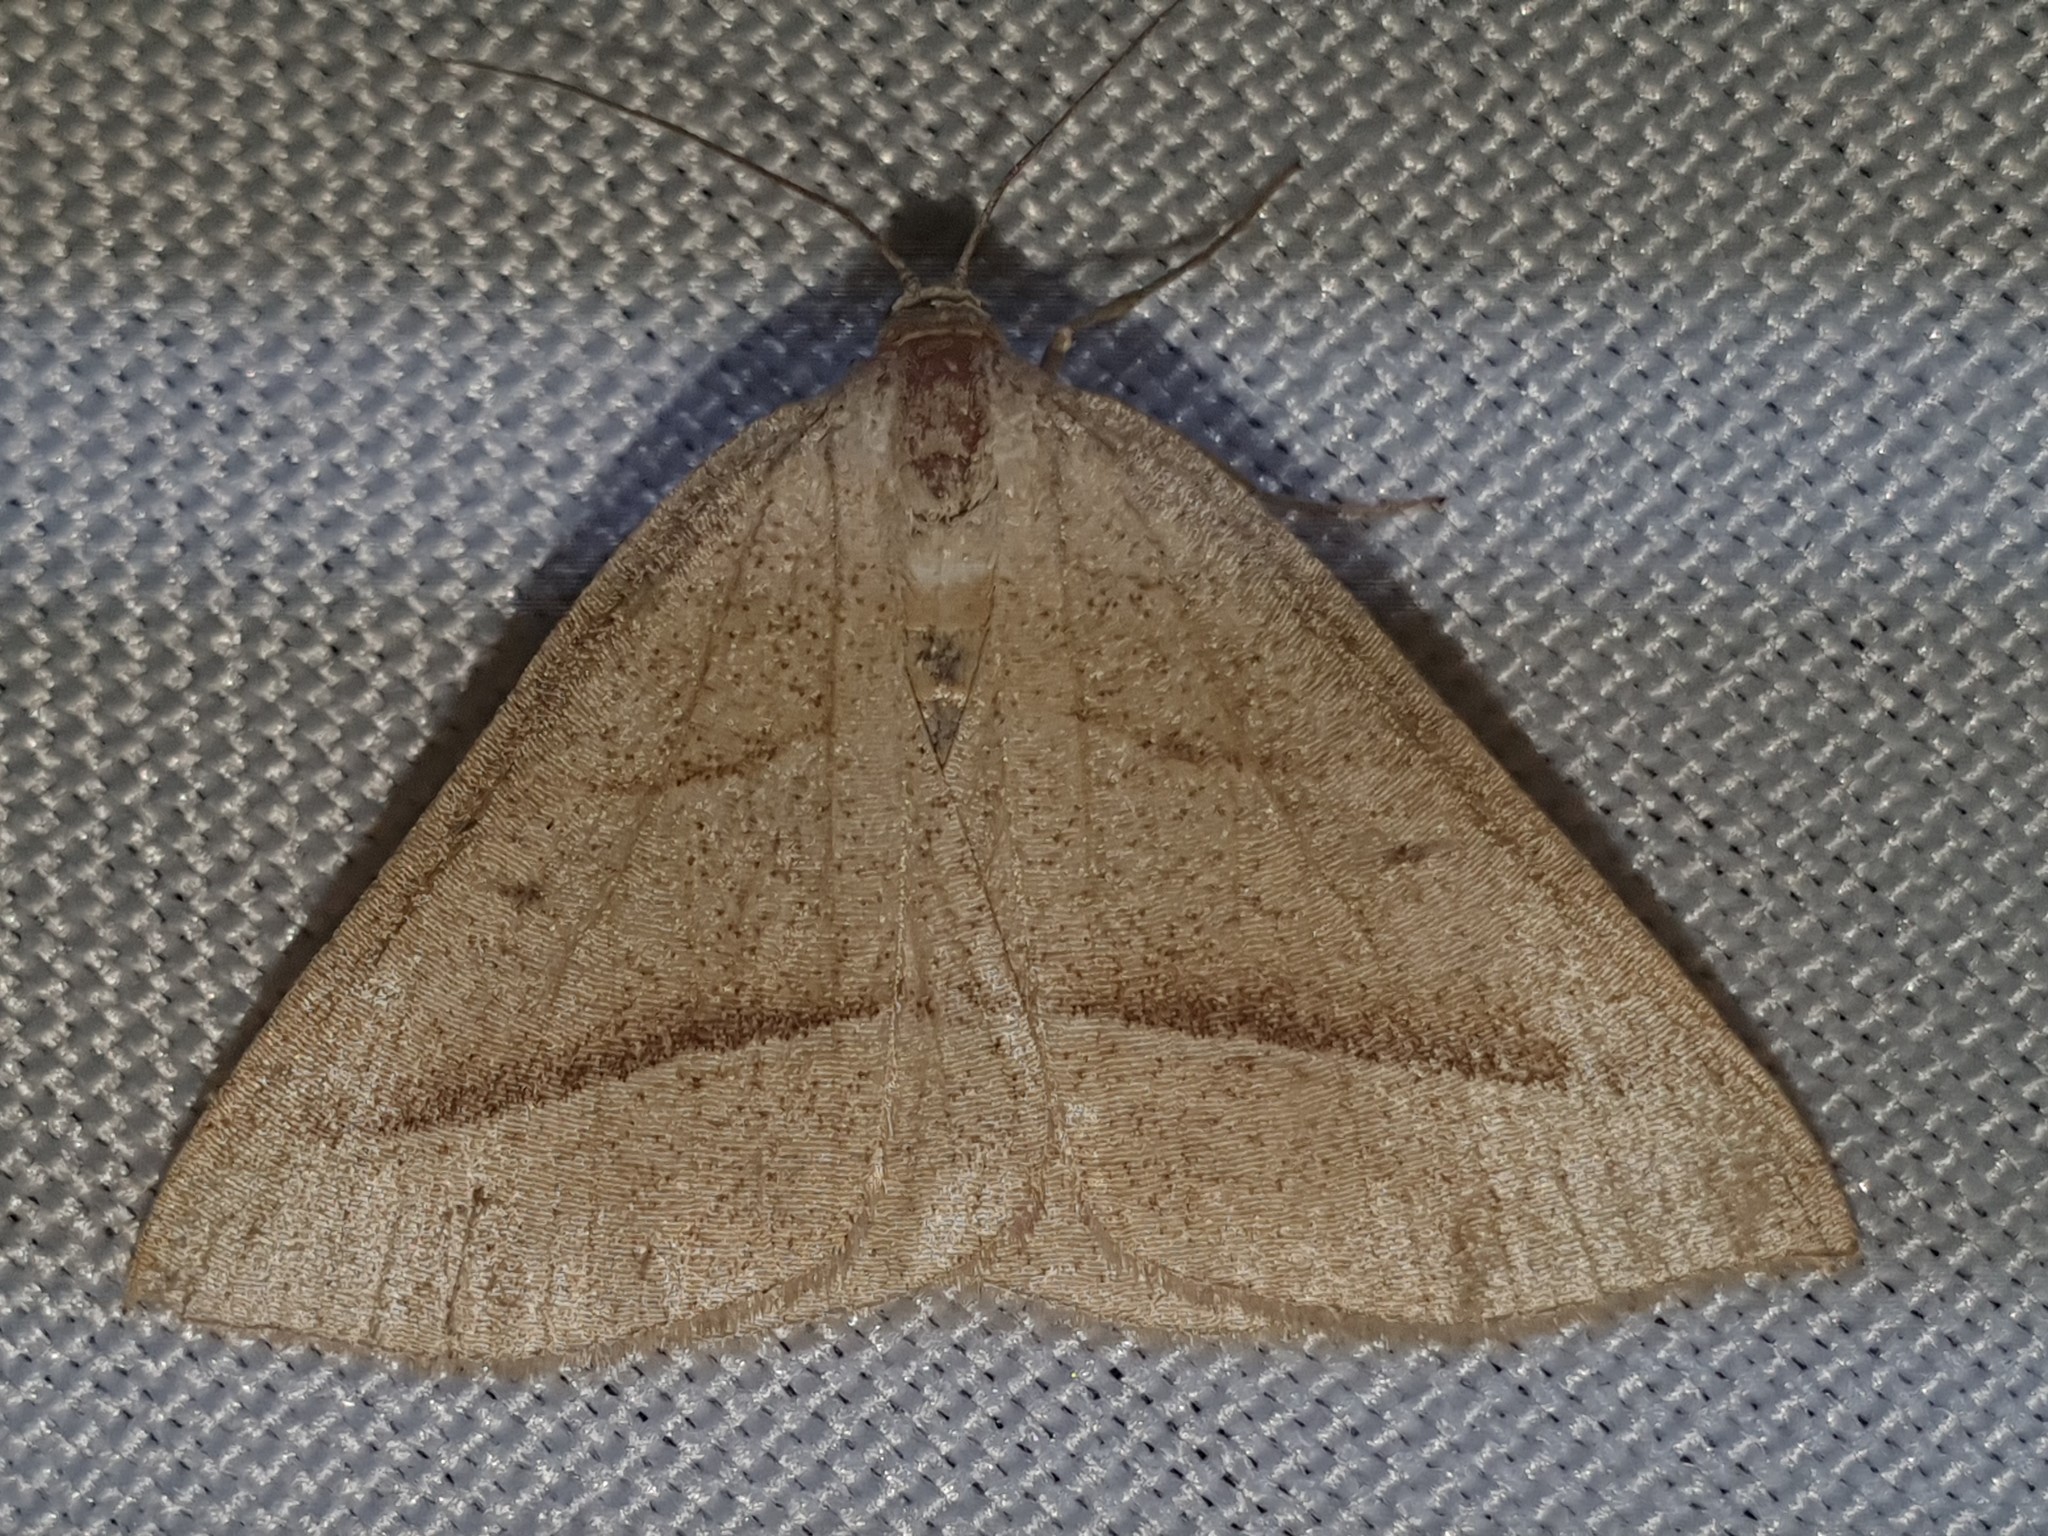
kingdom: Animalia
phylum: Arthropoda
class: Insecta
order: Lepidoptera
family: Pterophoridae
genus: Pterophorus
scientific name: Pterophorus Petrophora chlorosata
